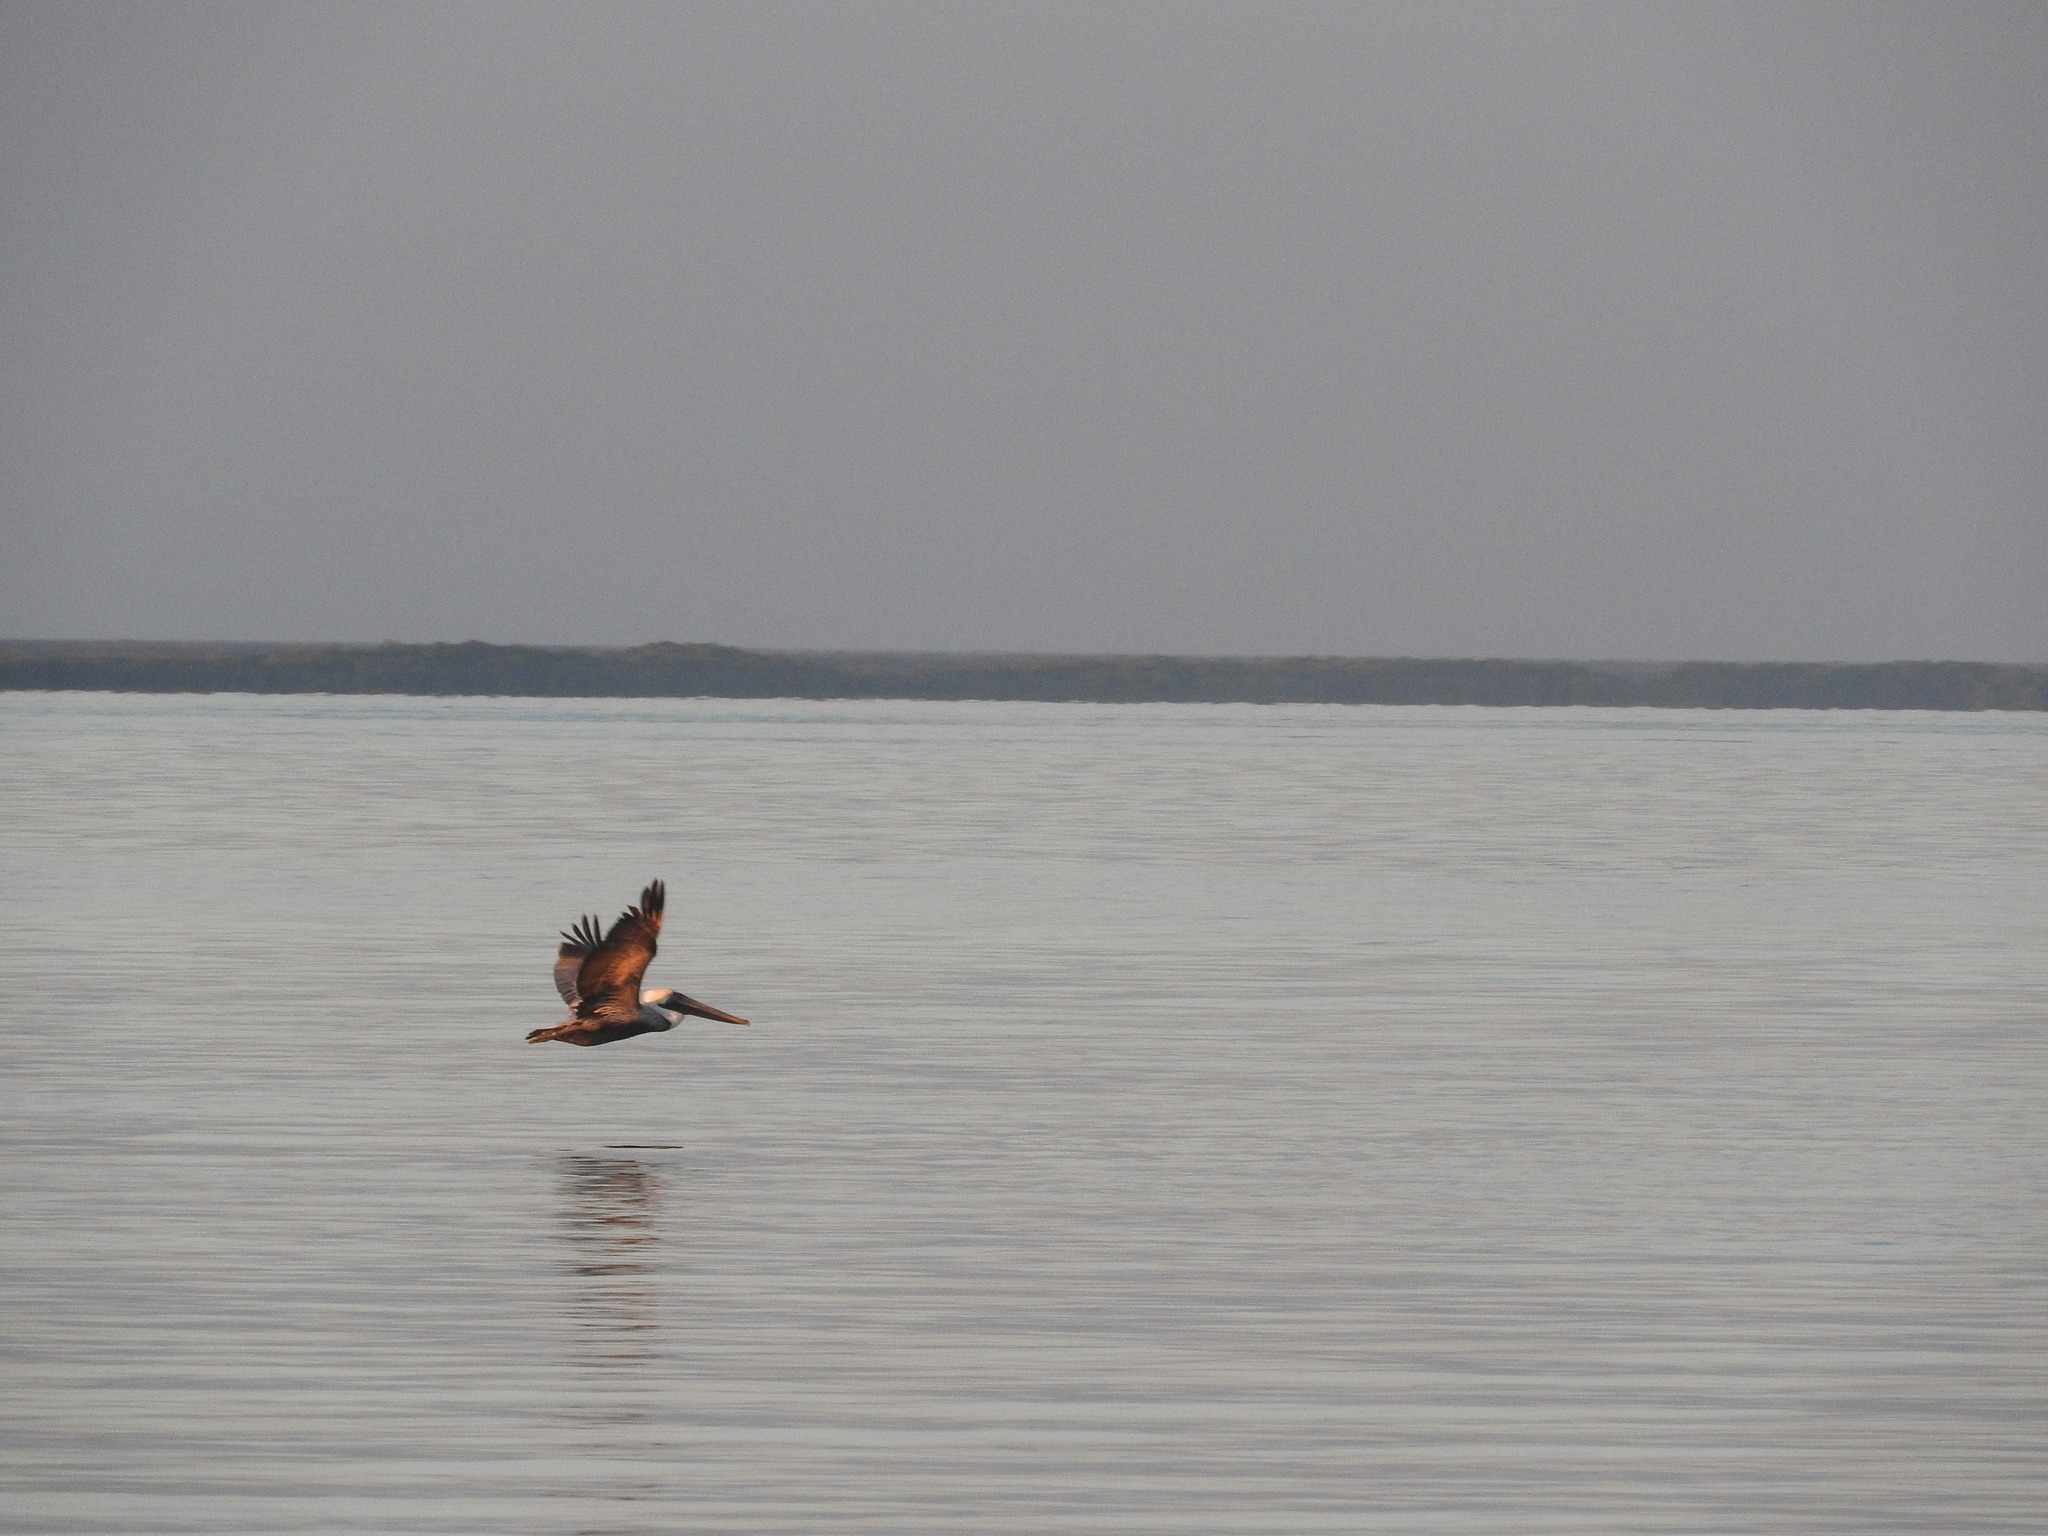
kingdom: Animalia
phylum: Chordata
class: Aves
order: Pelecaniformes
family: Pelecanidae
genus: Pelecanus
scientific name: Pelecanus occidentalis
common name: Brown pelican
